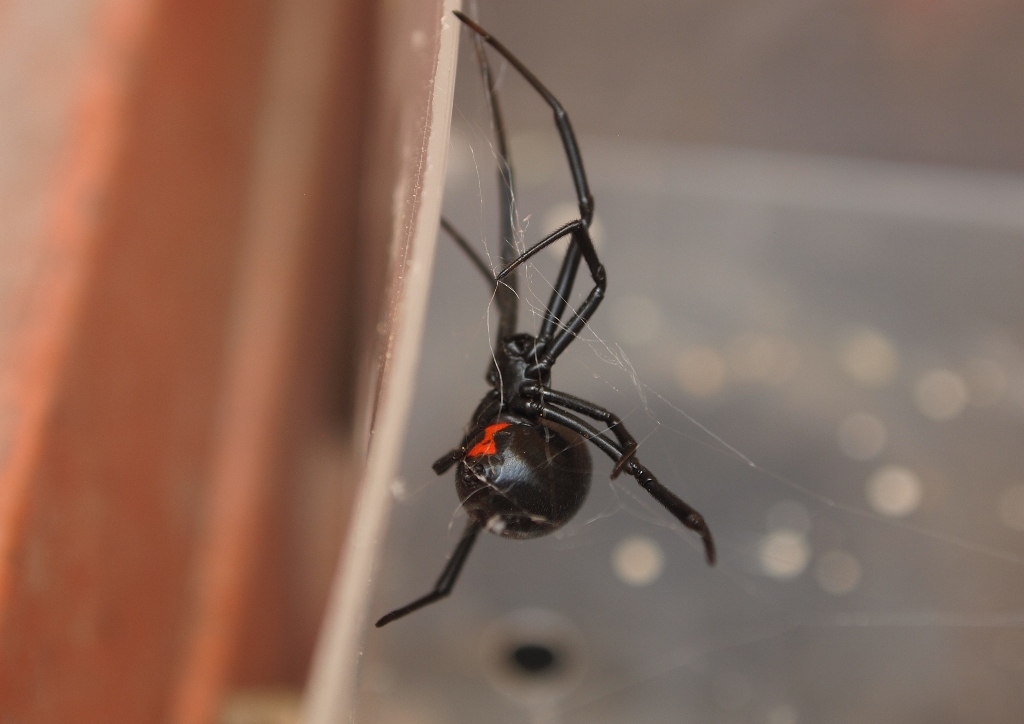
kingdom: Animalia
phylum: Arthropoda
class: Arachnida
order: Araneae
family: Theridiidae
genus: Latrodectus
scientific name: Latrodectus mactans
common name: Cobweb spiders
